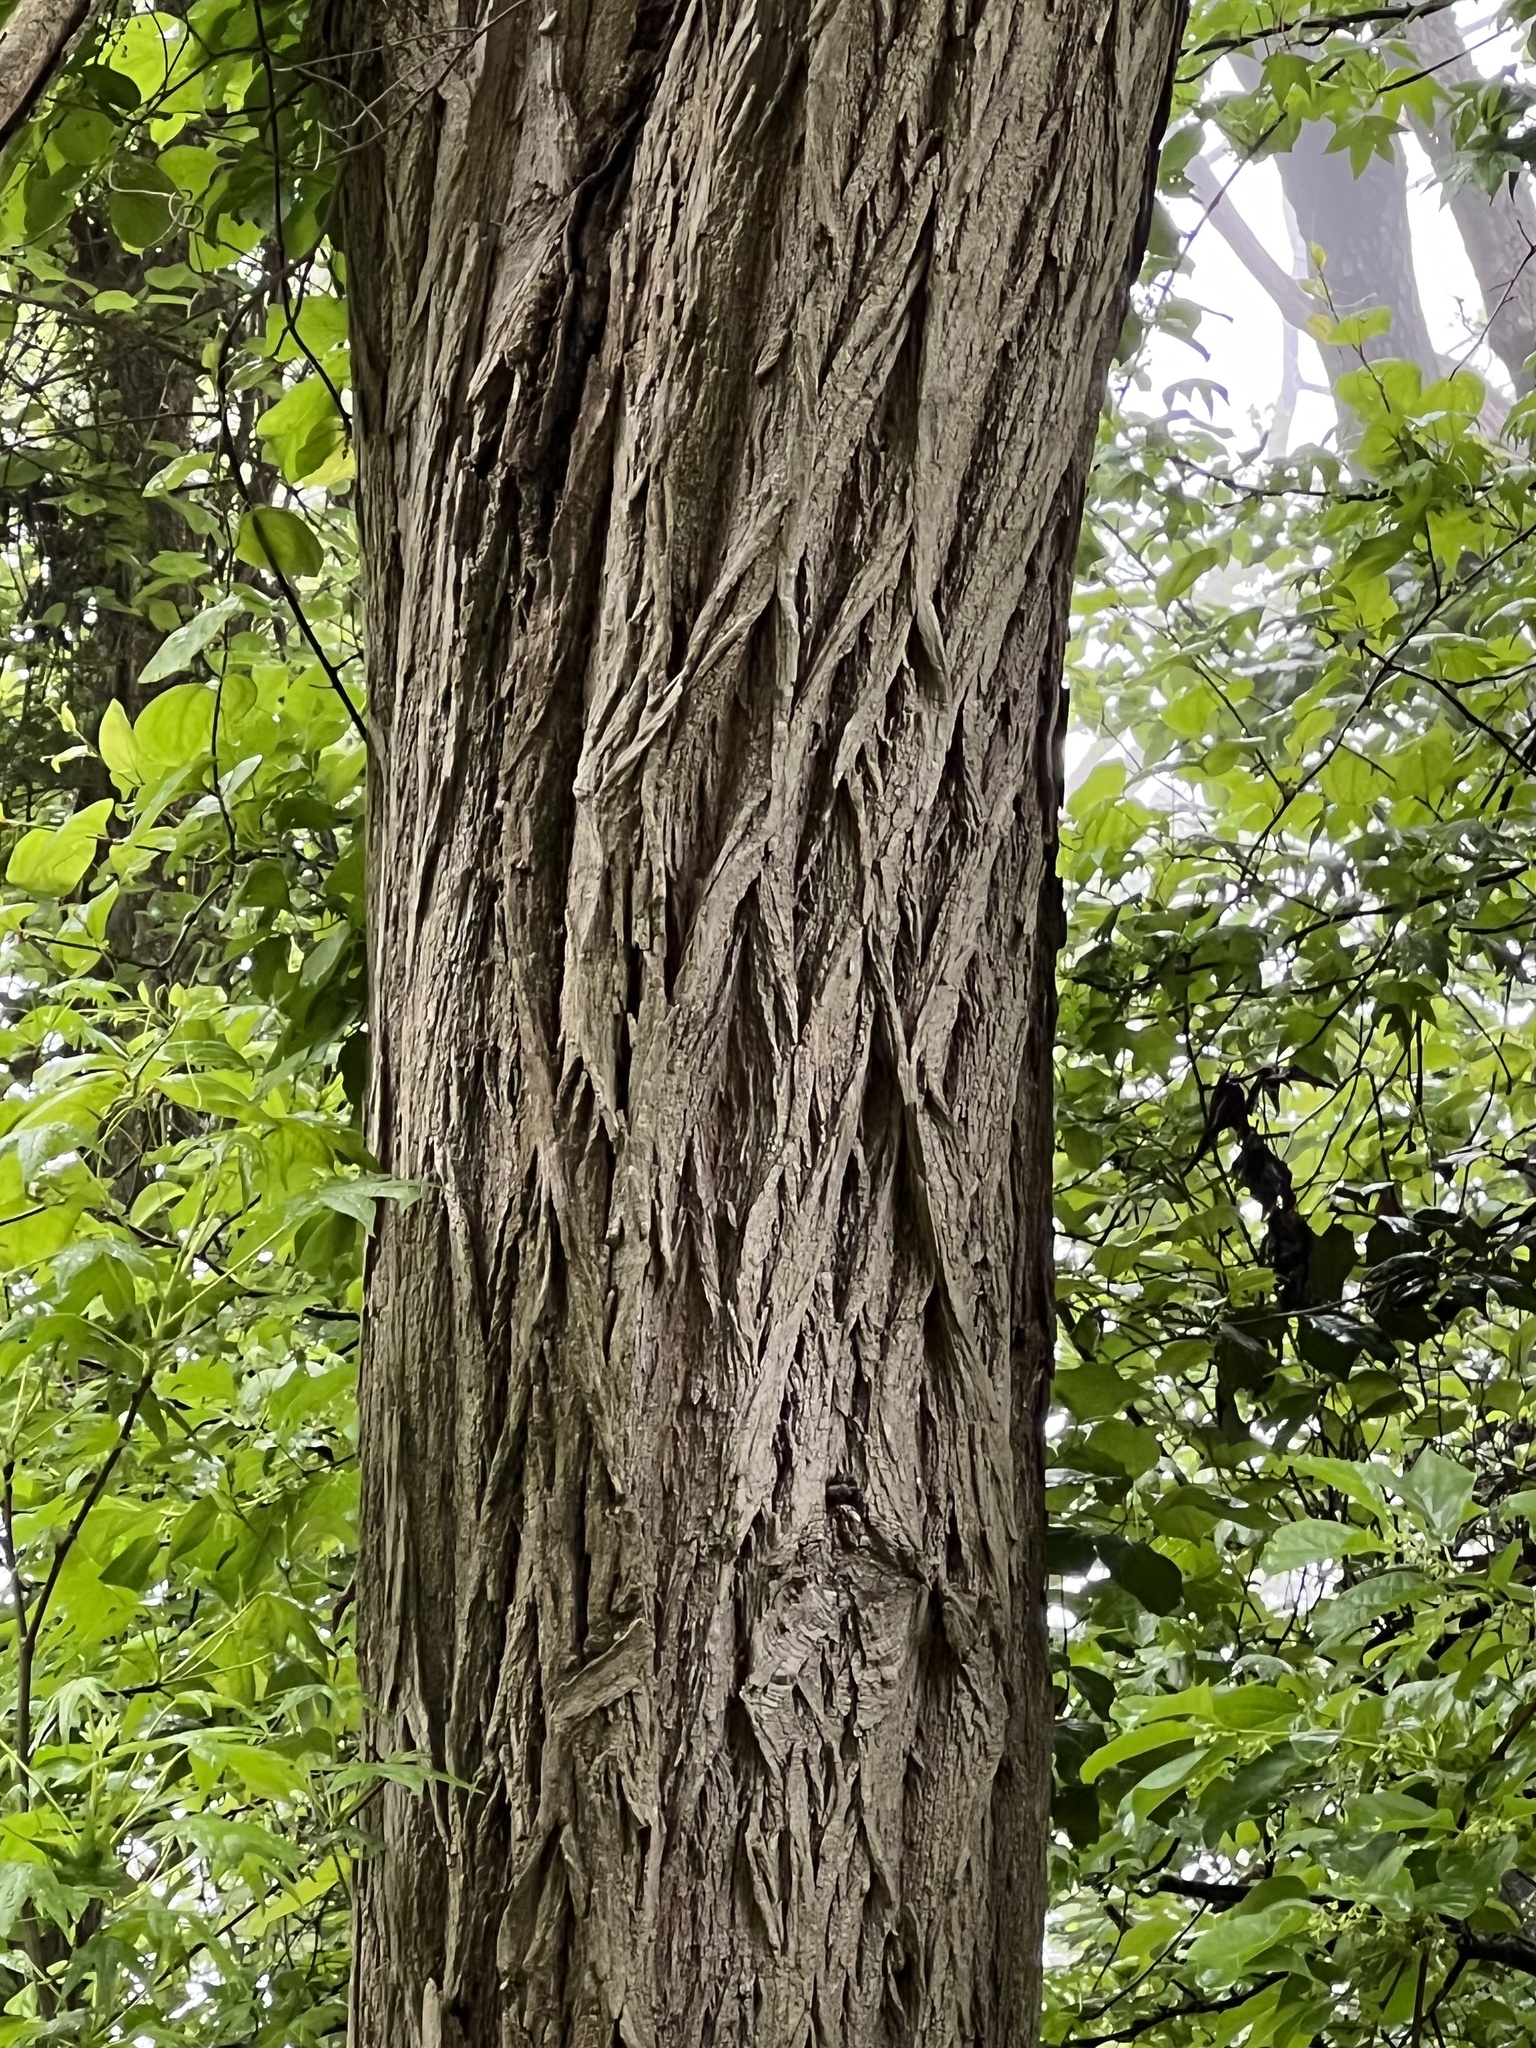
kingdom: Plantae
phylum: Tracheophyta
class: Magnoliopsida
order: Fabales
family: Fabaceae
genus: Robinia
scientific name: Robinia pseudoacacia
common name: Black locust
